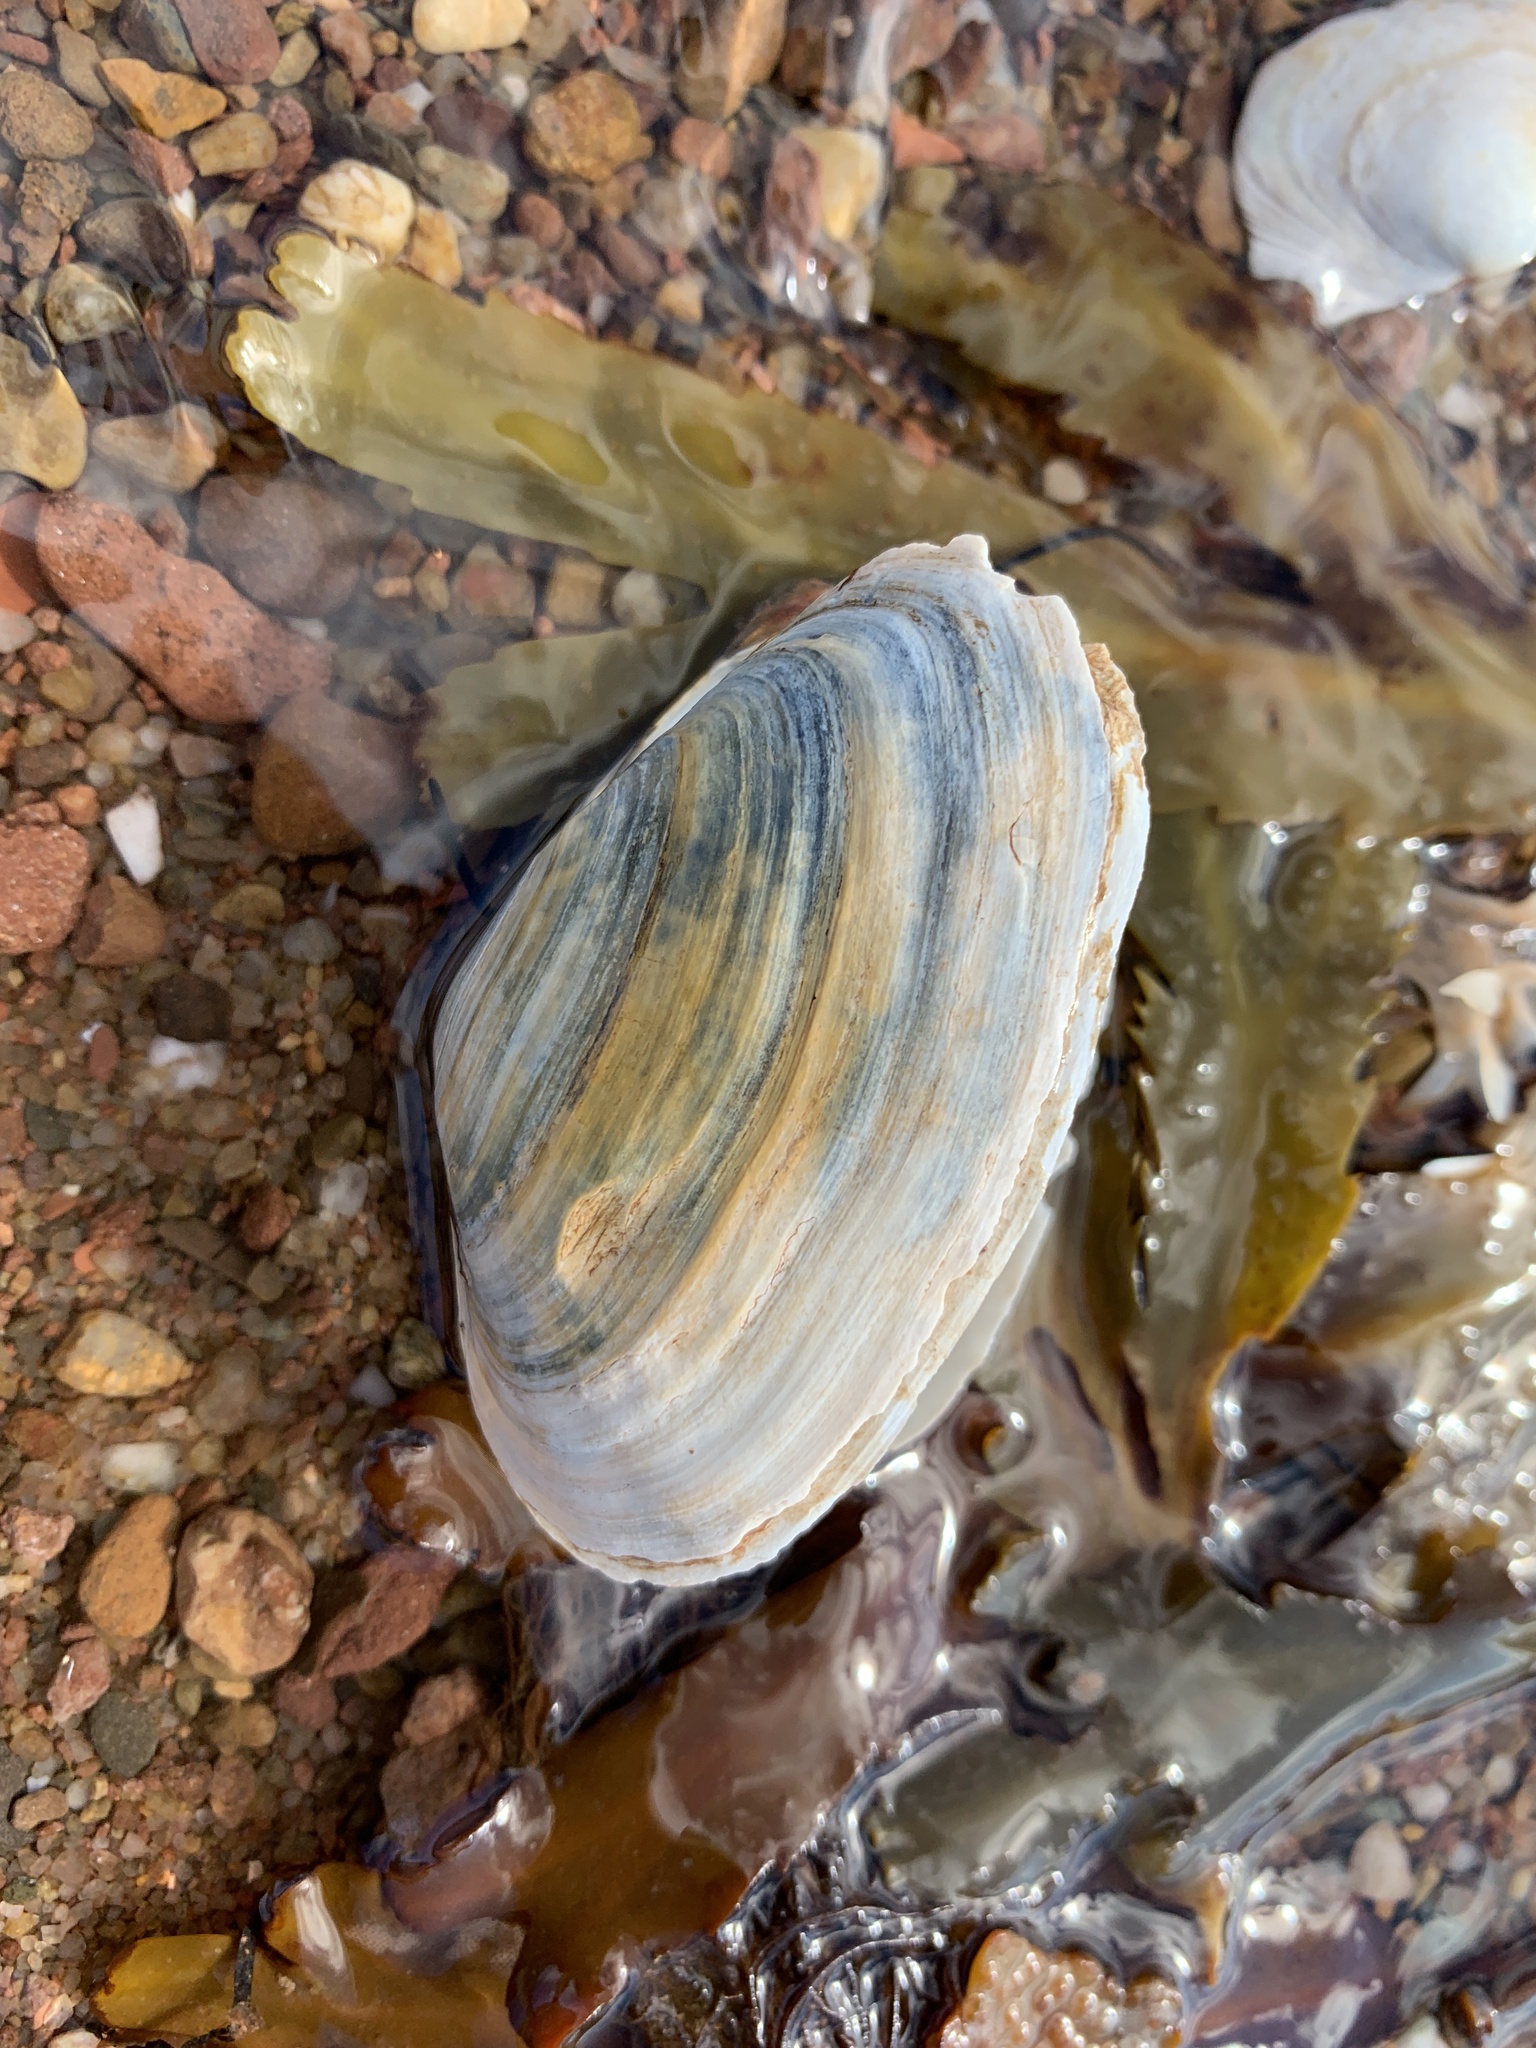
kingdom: Animalia
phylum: Mollusca
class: Bivalvia
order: Myida
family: Myidae
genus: Mya
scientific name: Mya arenaria
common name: Soft-shelled clam
